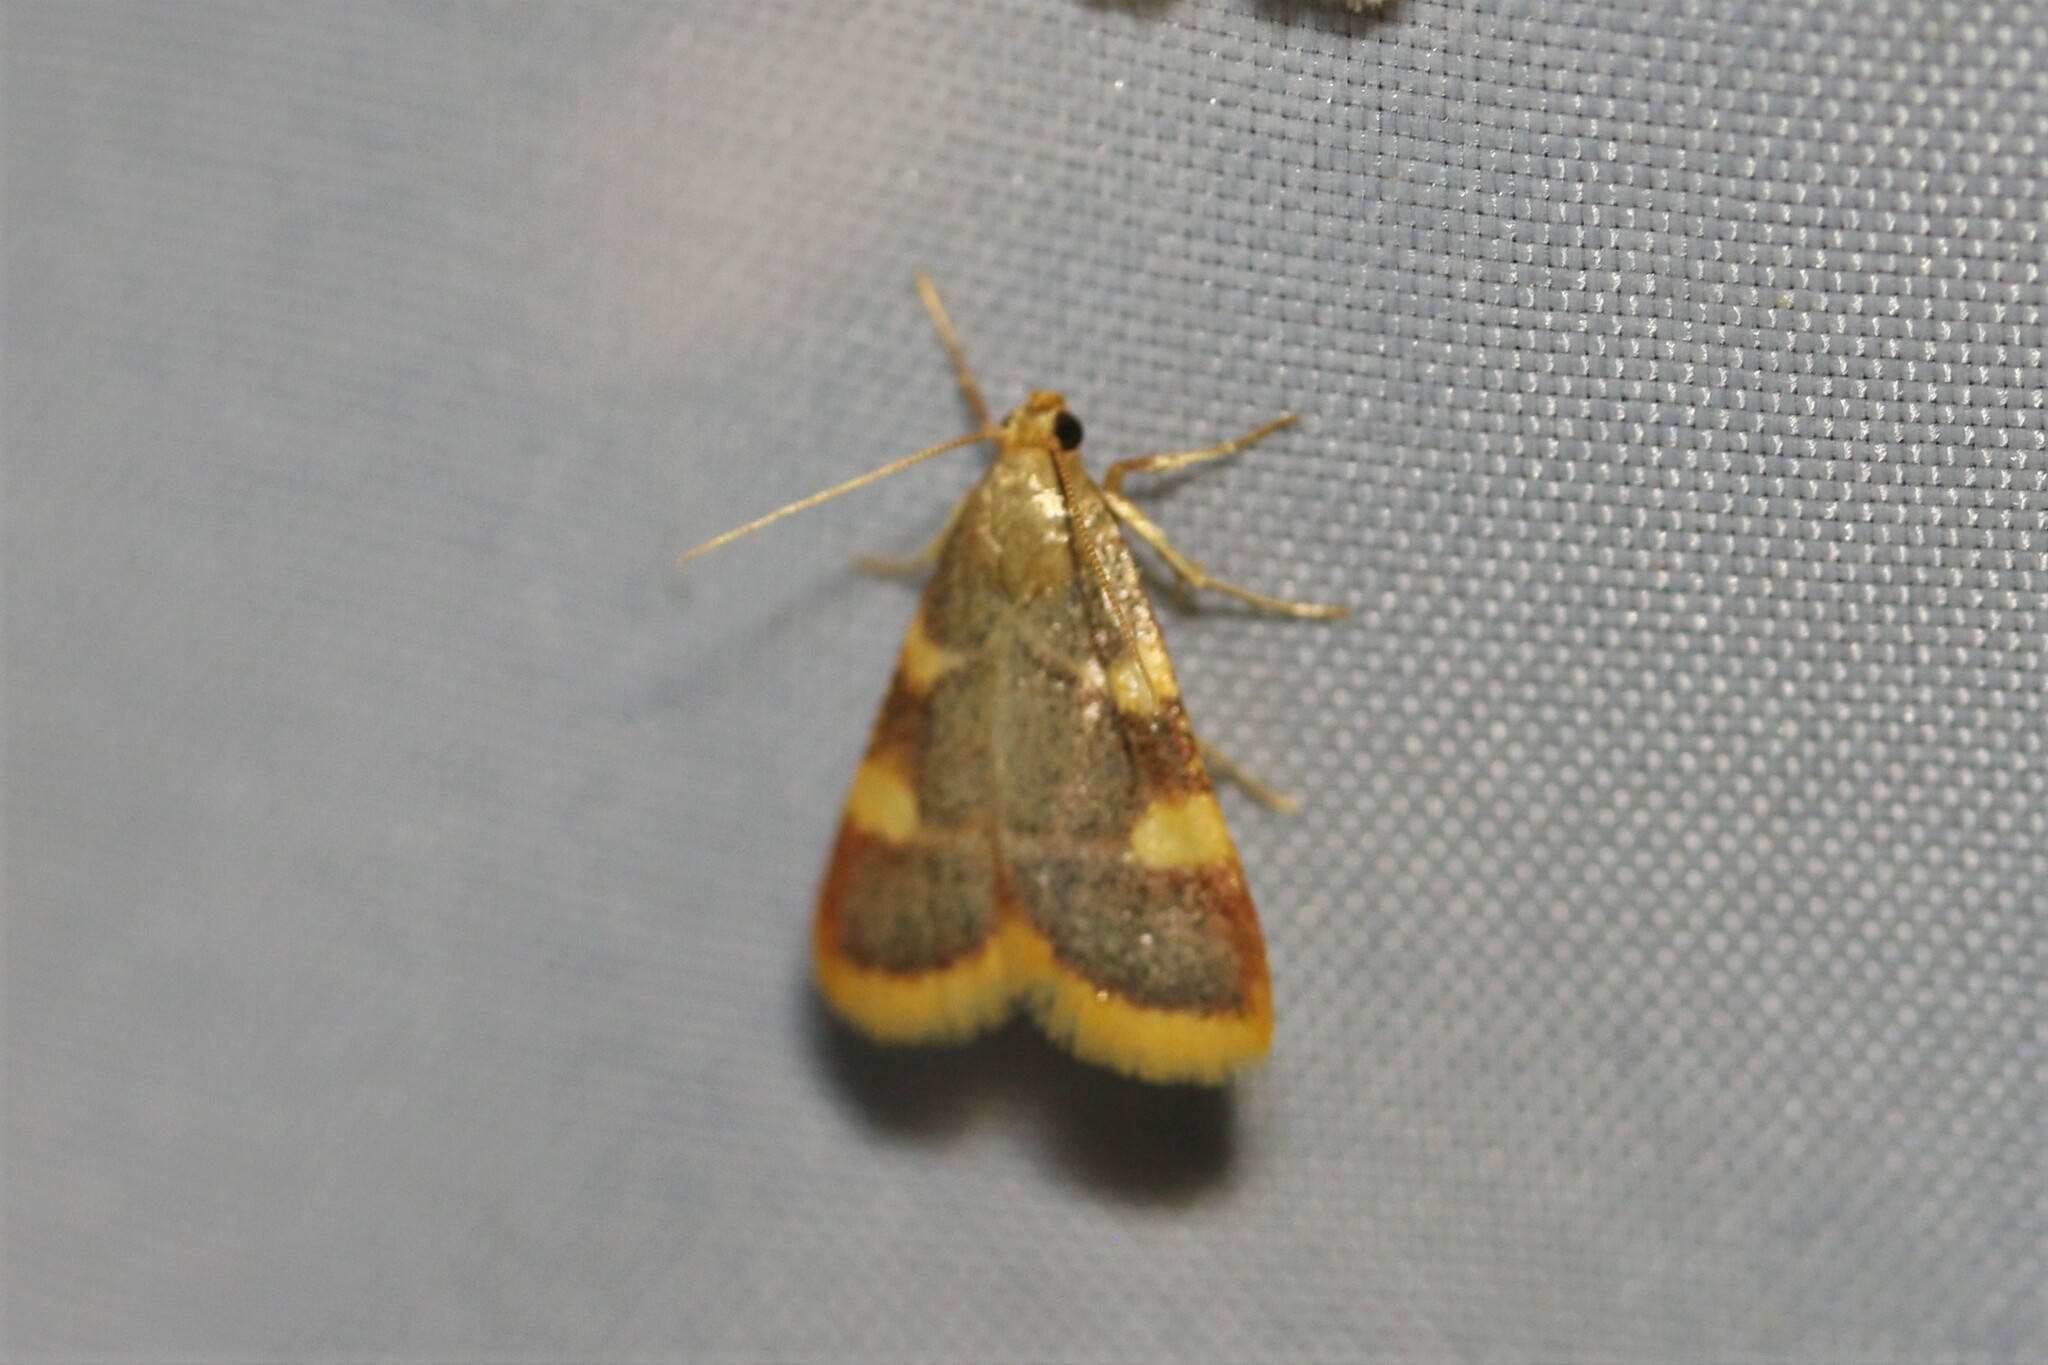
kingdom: Animalia
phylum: Arthropoda
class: Insecta
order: Lepidoptera
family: Pyralidae
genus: Hypsopygia
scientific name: Hypsopygia costalis
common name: Gold triangle
